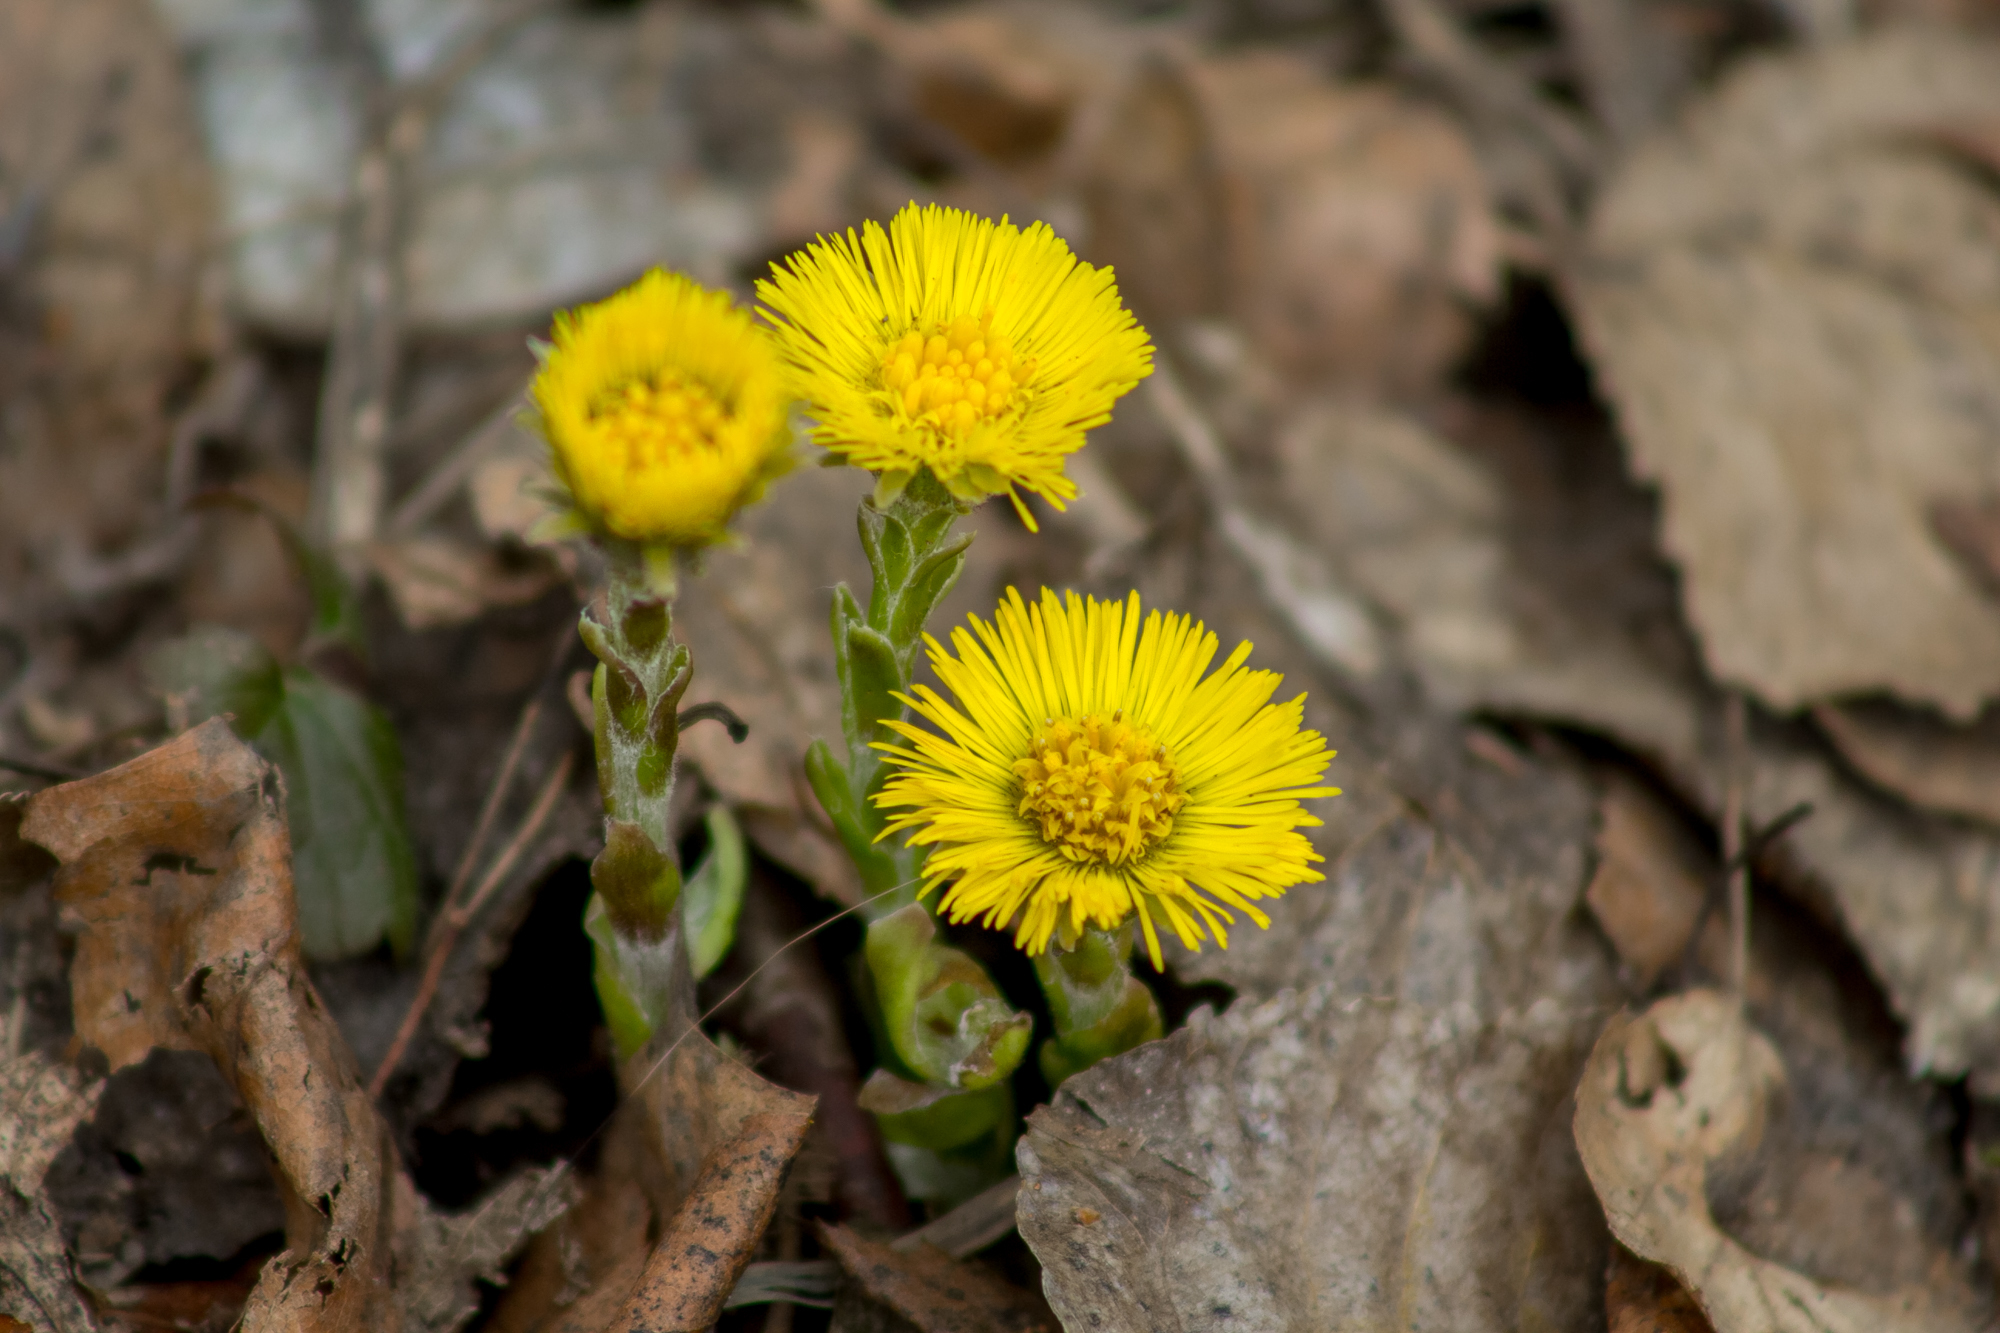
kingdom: Plantae
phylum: Tracheophyta
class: Magnoliopsida
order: Asterales
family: Asteraceae
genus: Tussilago
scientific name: Tussilago farfara
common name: Coltsfoot
